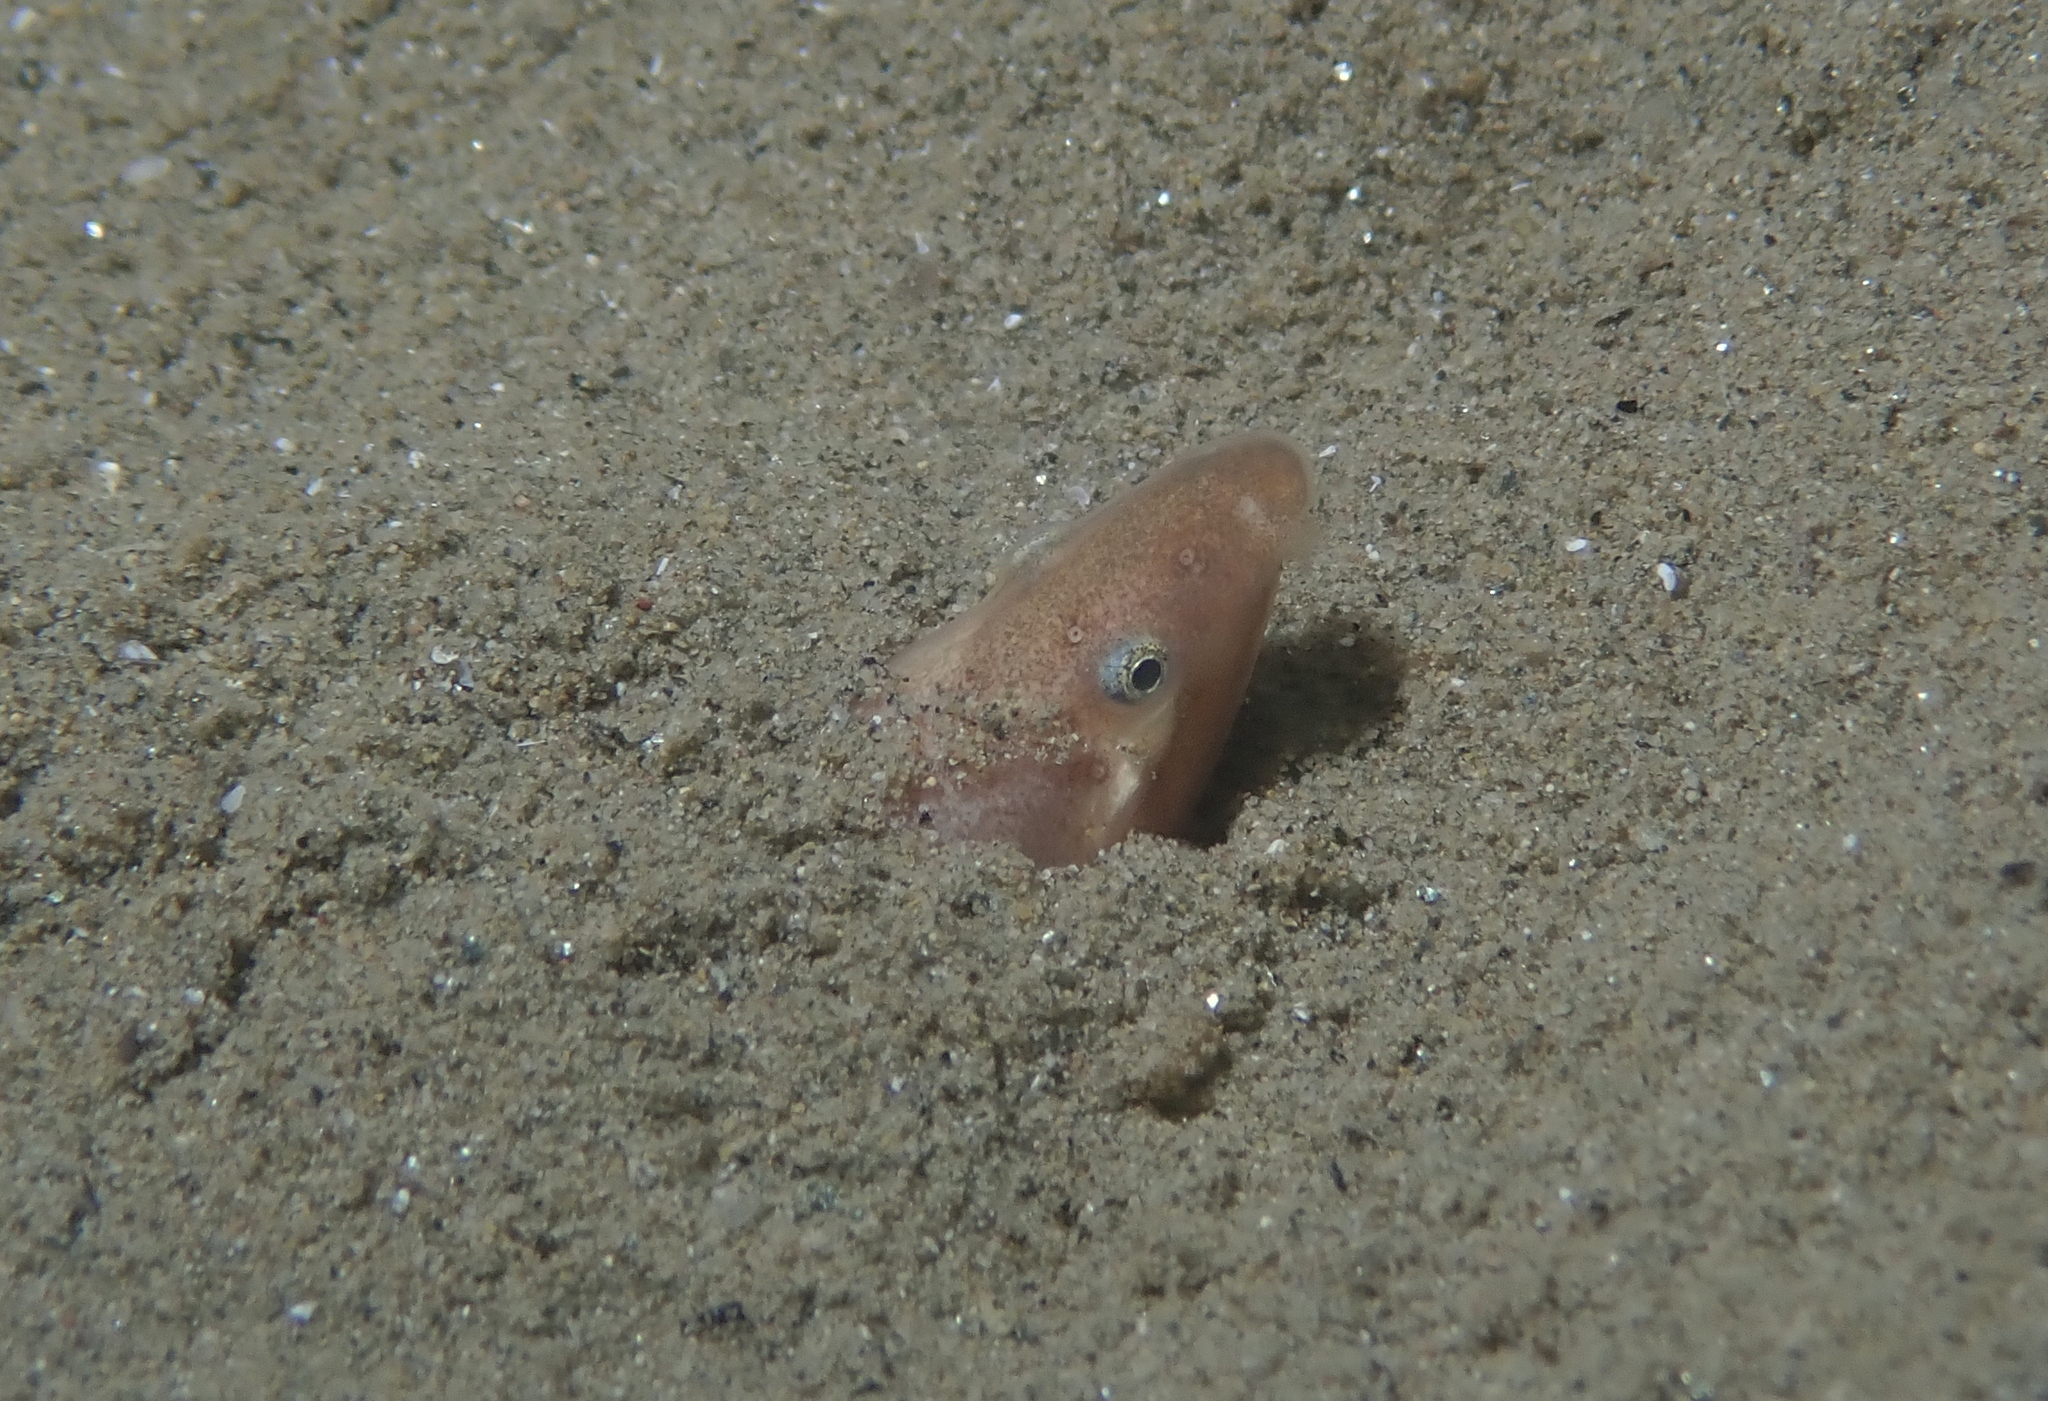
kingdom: Animalia
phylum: Chordata
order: Anguilliformes
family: Ophichthidae
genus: Dalophis
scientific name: Dalophis imberbis
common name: Armless snake eel
